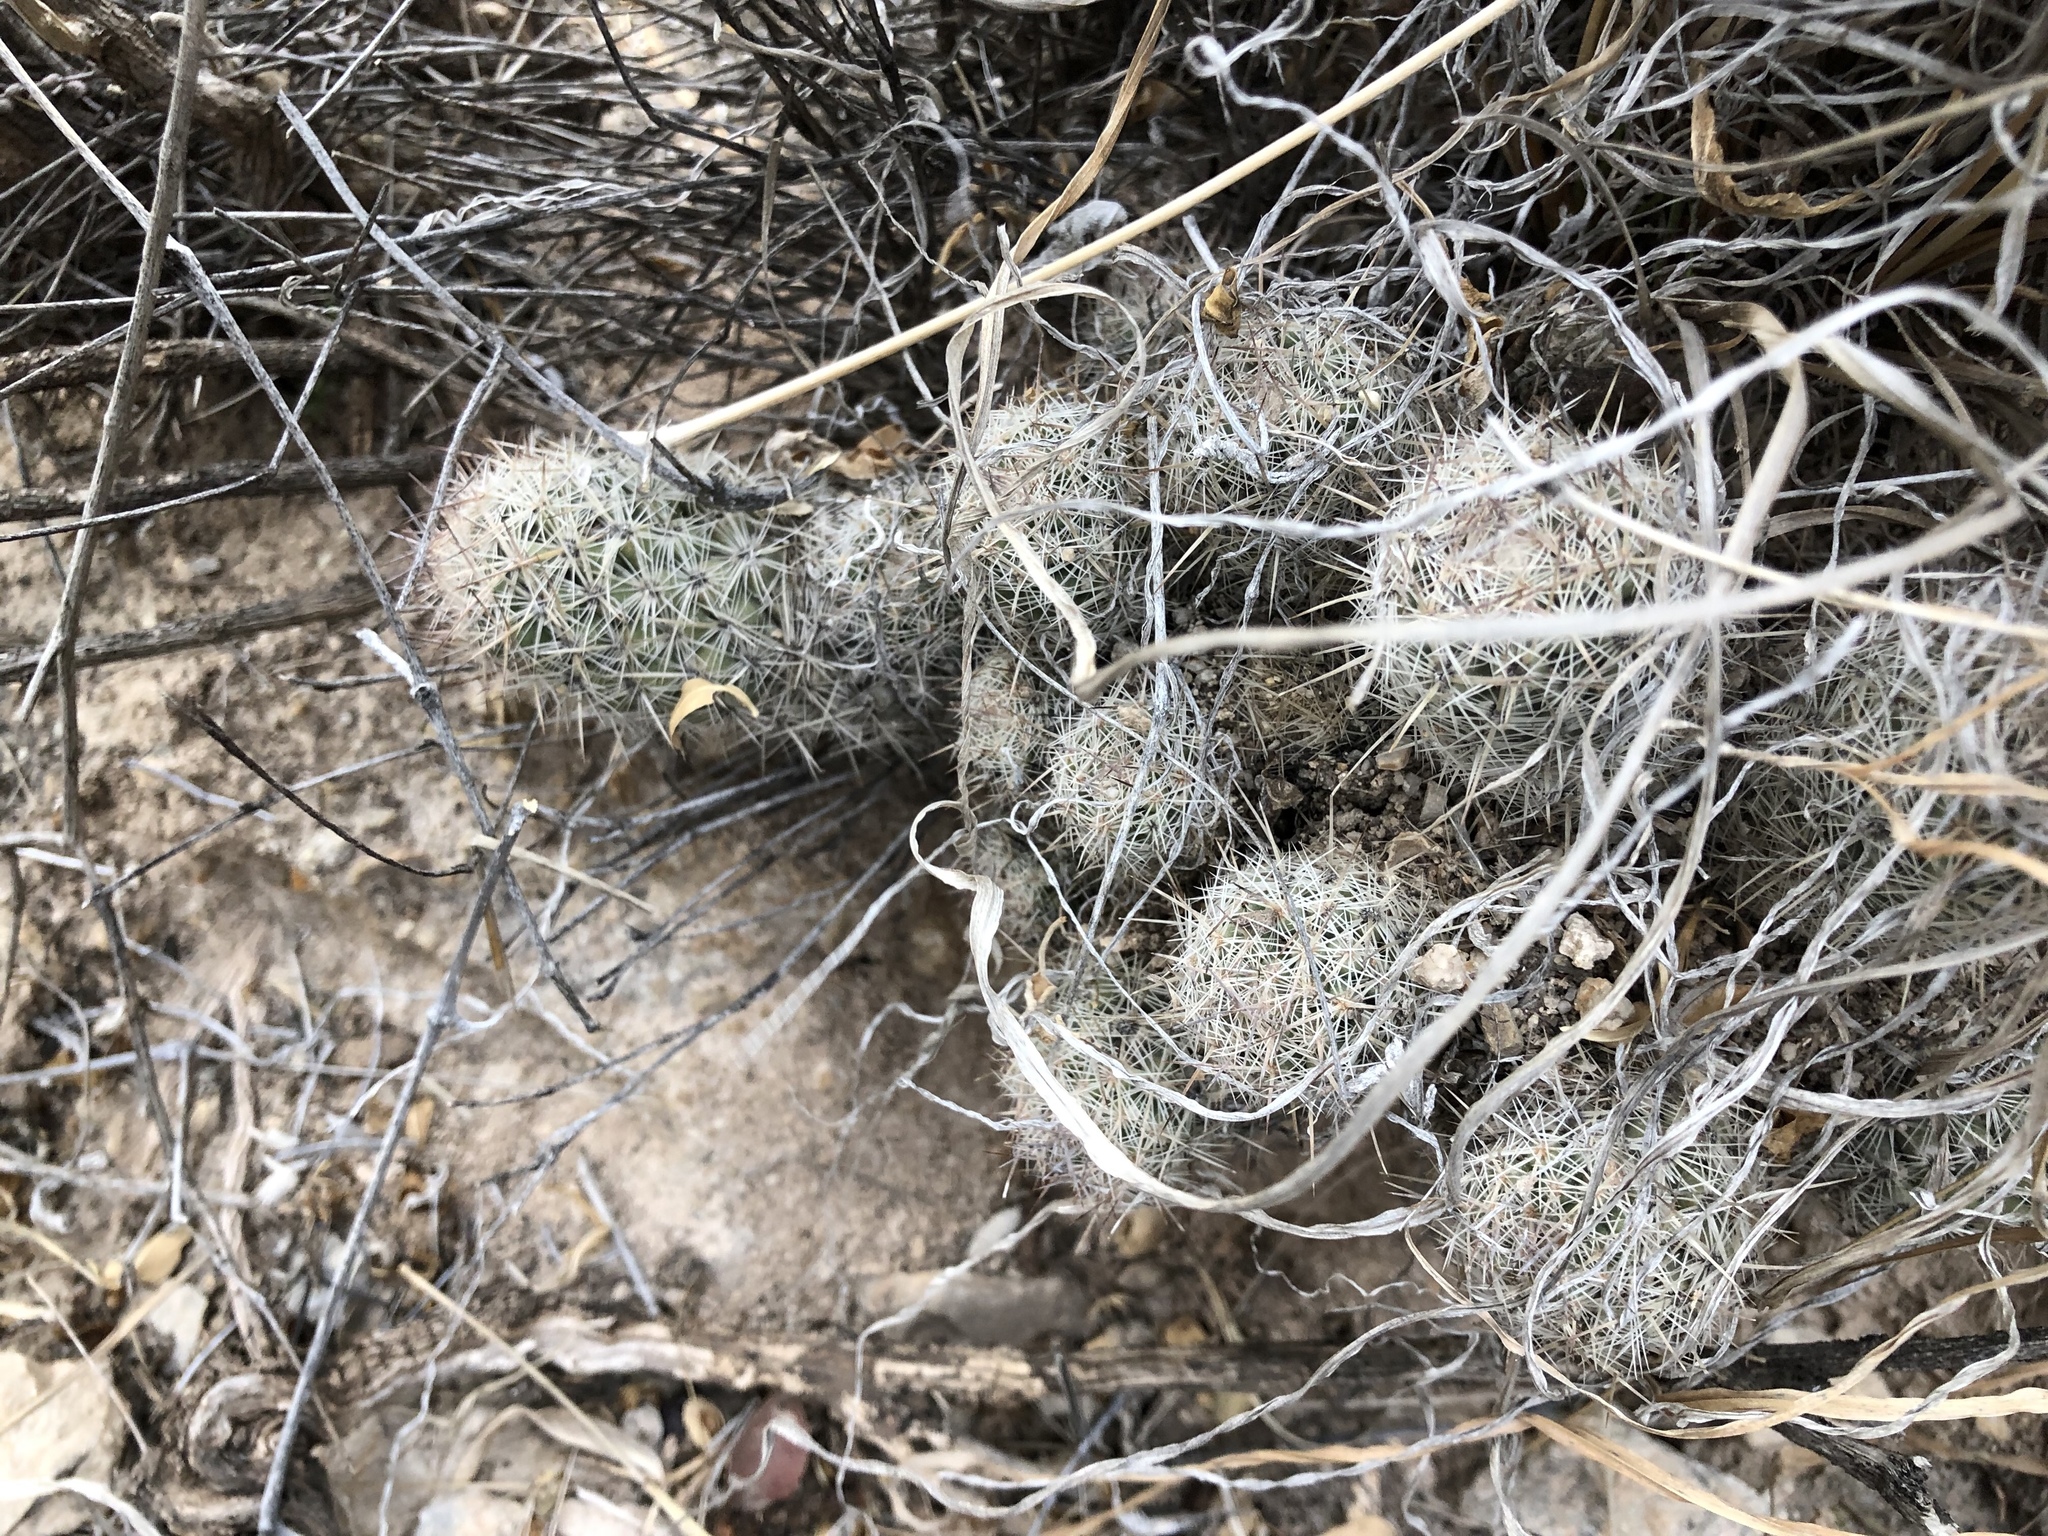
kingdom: Plantae
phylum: Tracheophyta
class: Magnoliopsida
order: Caryophyllales
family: Cactaceae
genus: Pelecyphora
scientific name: Pelecyphora tuberculosa
